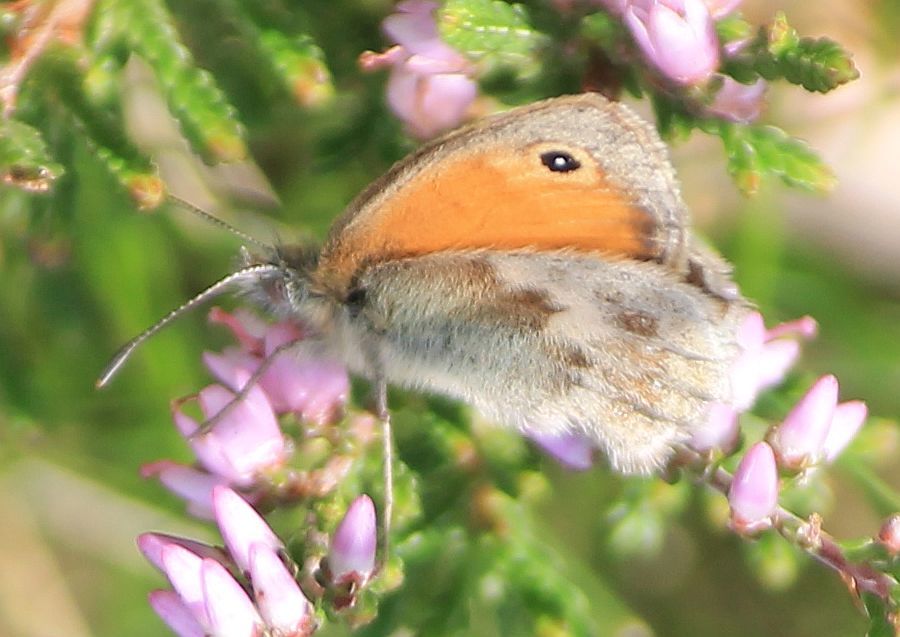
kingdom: Animalia
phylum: Arthropoda
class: Insecta
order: Lepidoptera
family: Nymphalidae
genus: Coenonympha
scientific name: Coenonympha pamphilus
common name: Small heath
